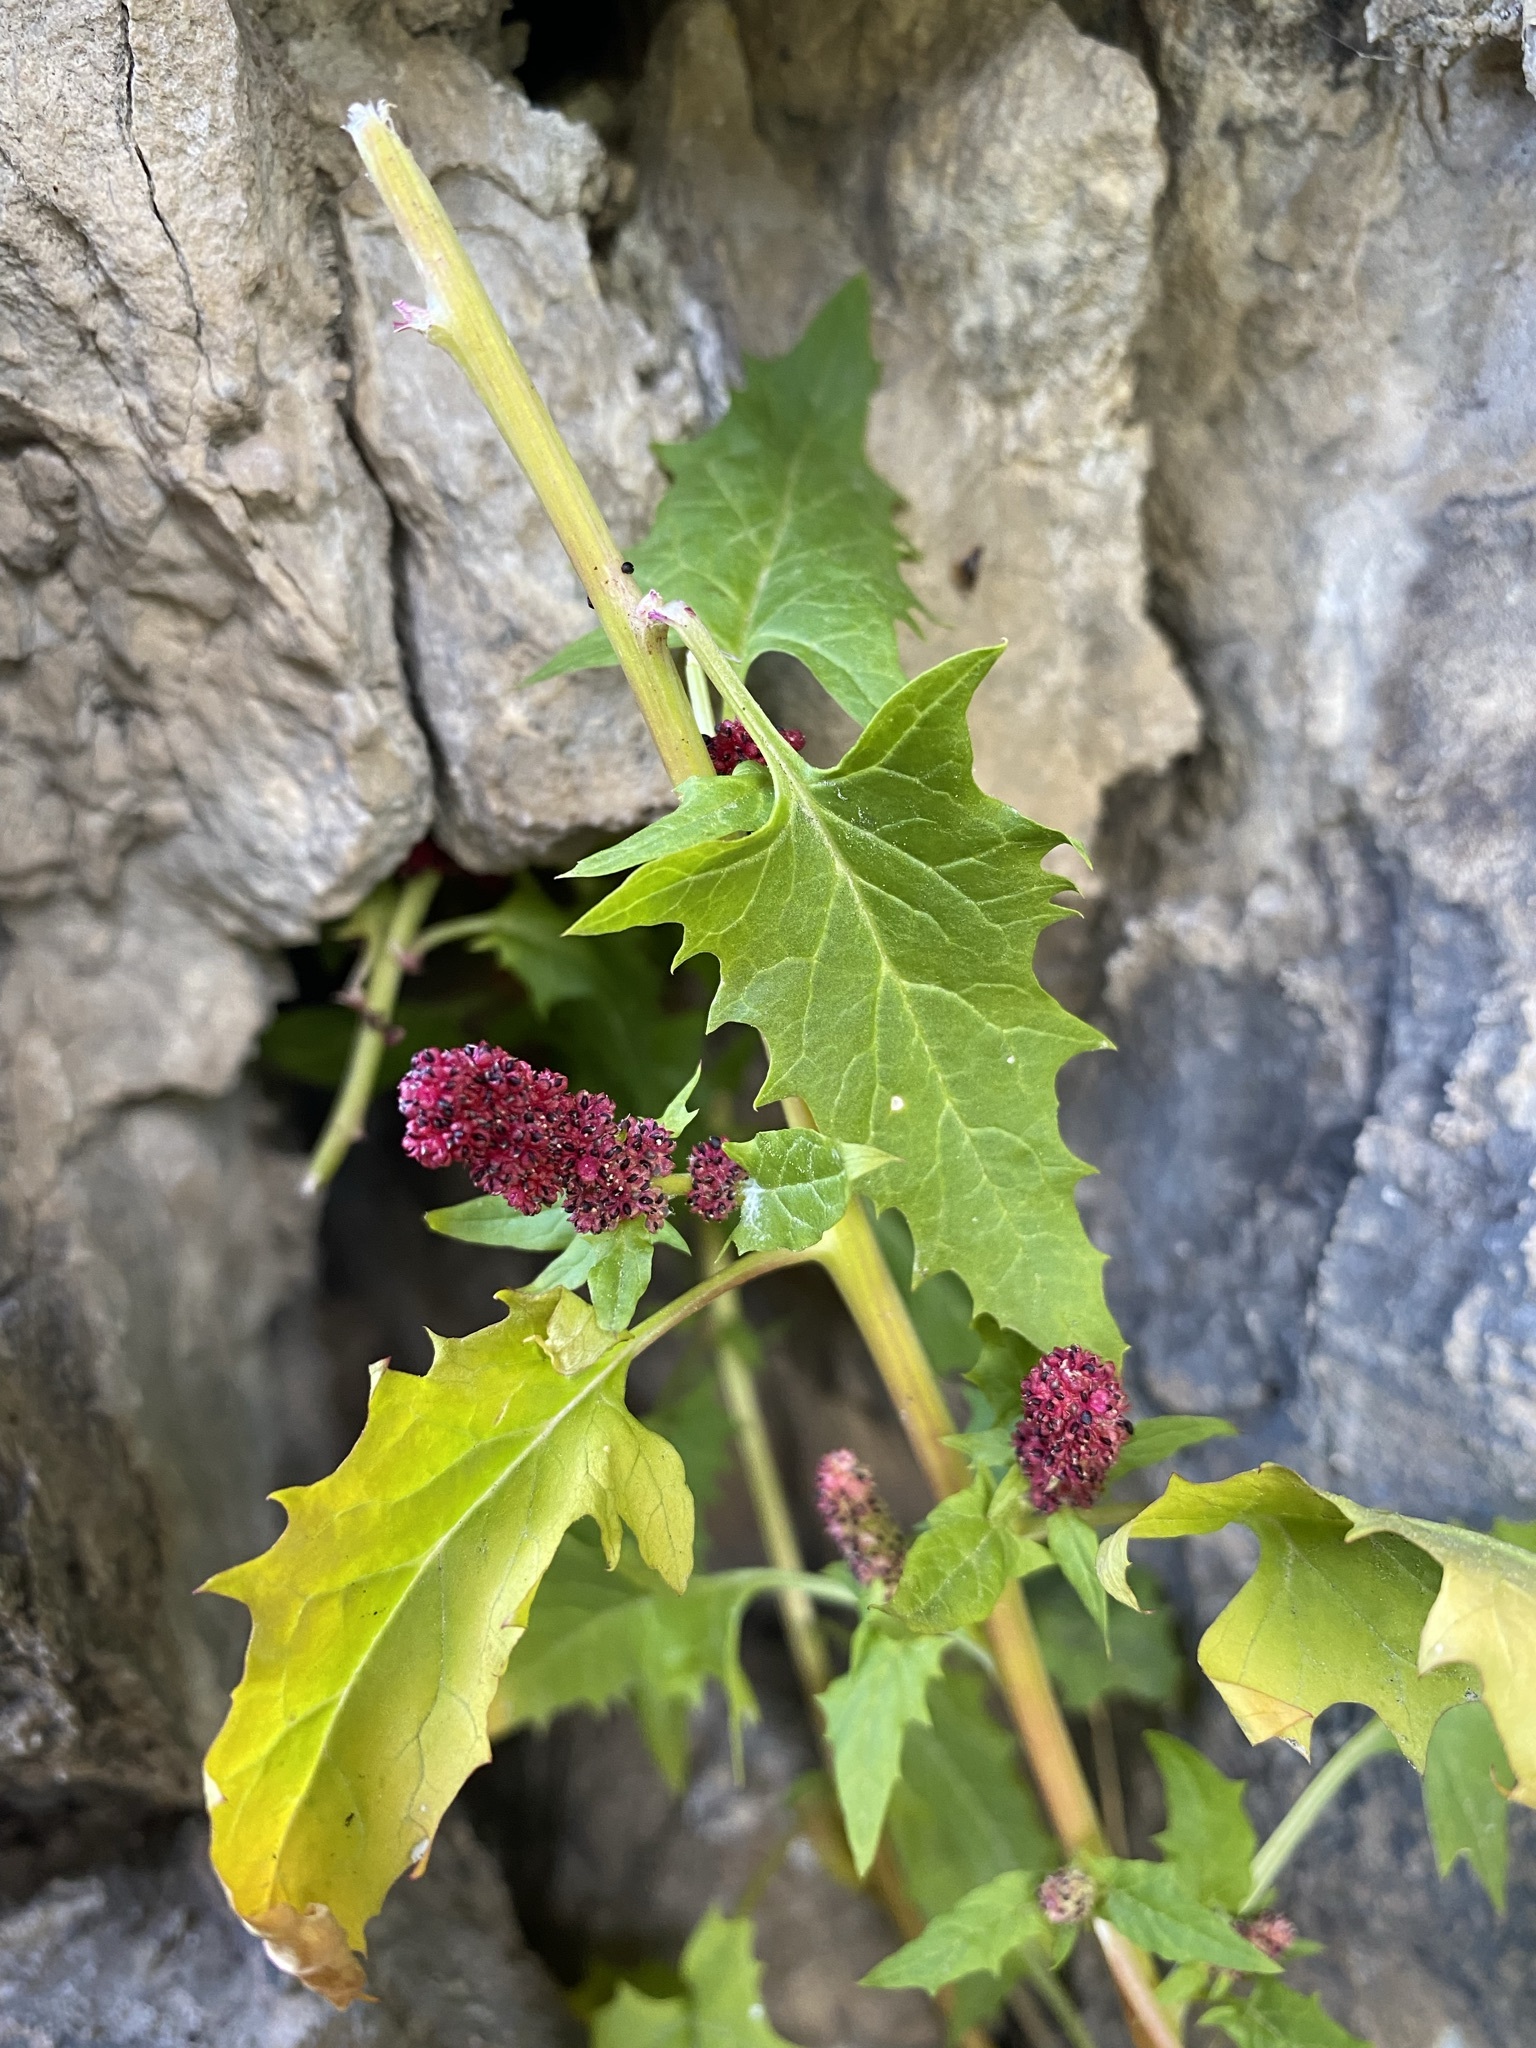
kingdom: Plantae
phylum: Tracheophyta
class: Magnoliopsida
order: Caryophyllales
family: Amaranthaceae
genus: Blitum
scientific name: Blitum capitatum
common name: Strawberry-blight
